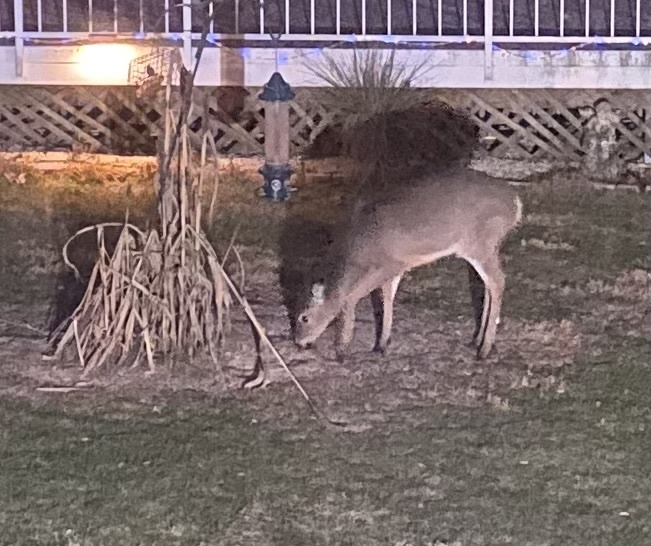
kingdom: Animalia
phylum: Chordata
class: Mammalia
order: Artiodactyla
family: Cervidae
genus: Odocoileus
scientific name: Odocoileus virginianus
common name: White-tailed deer
